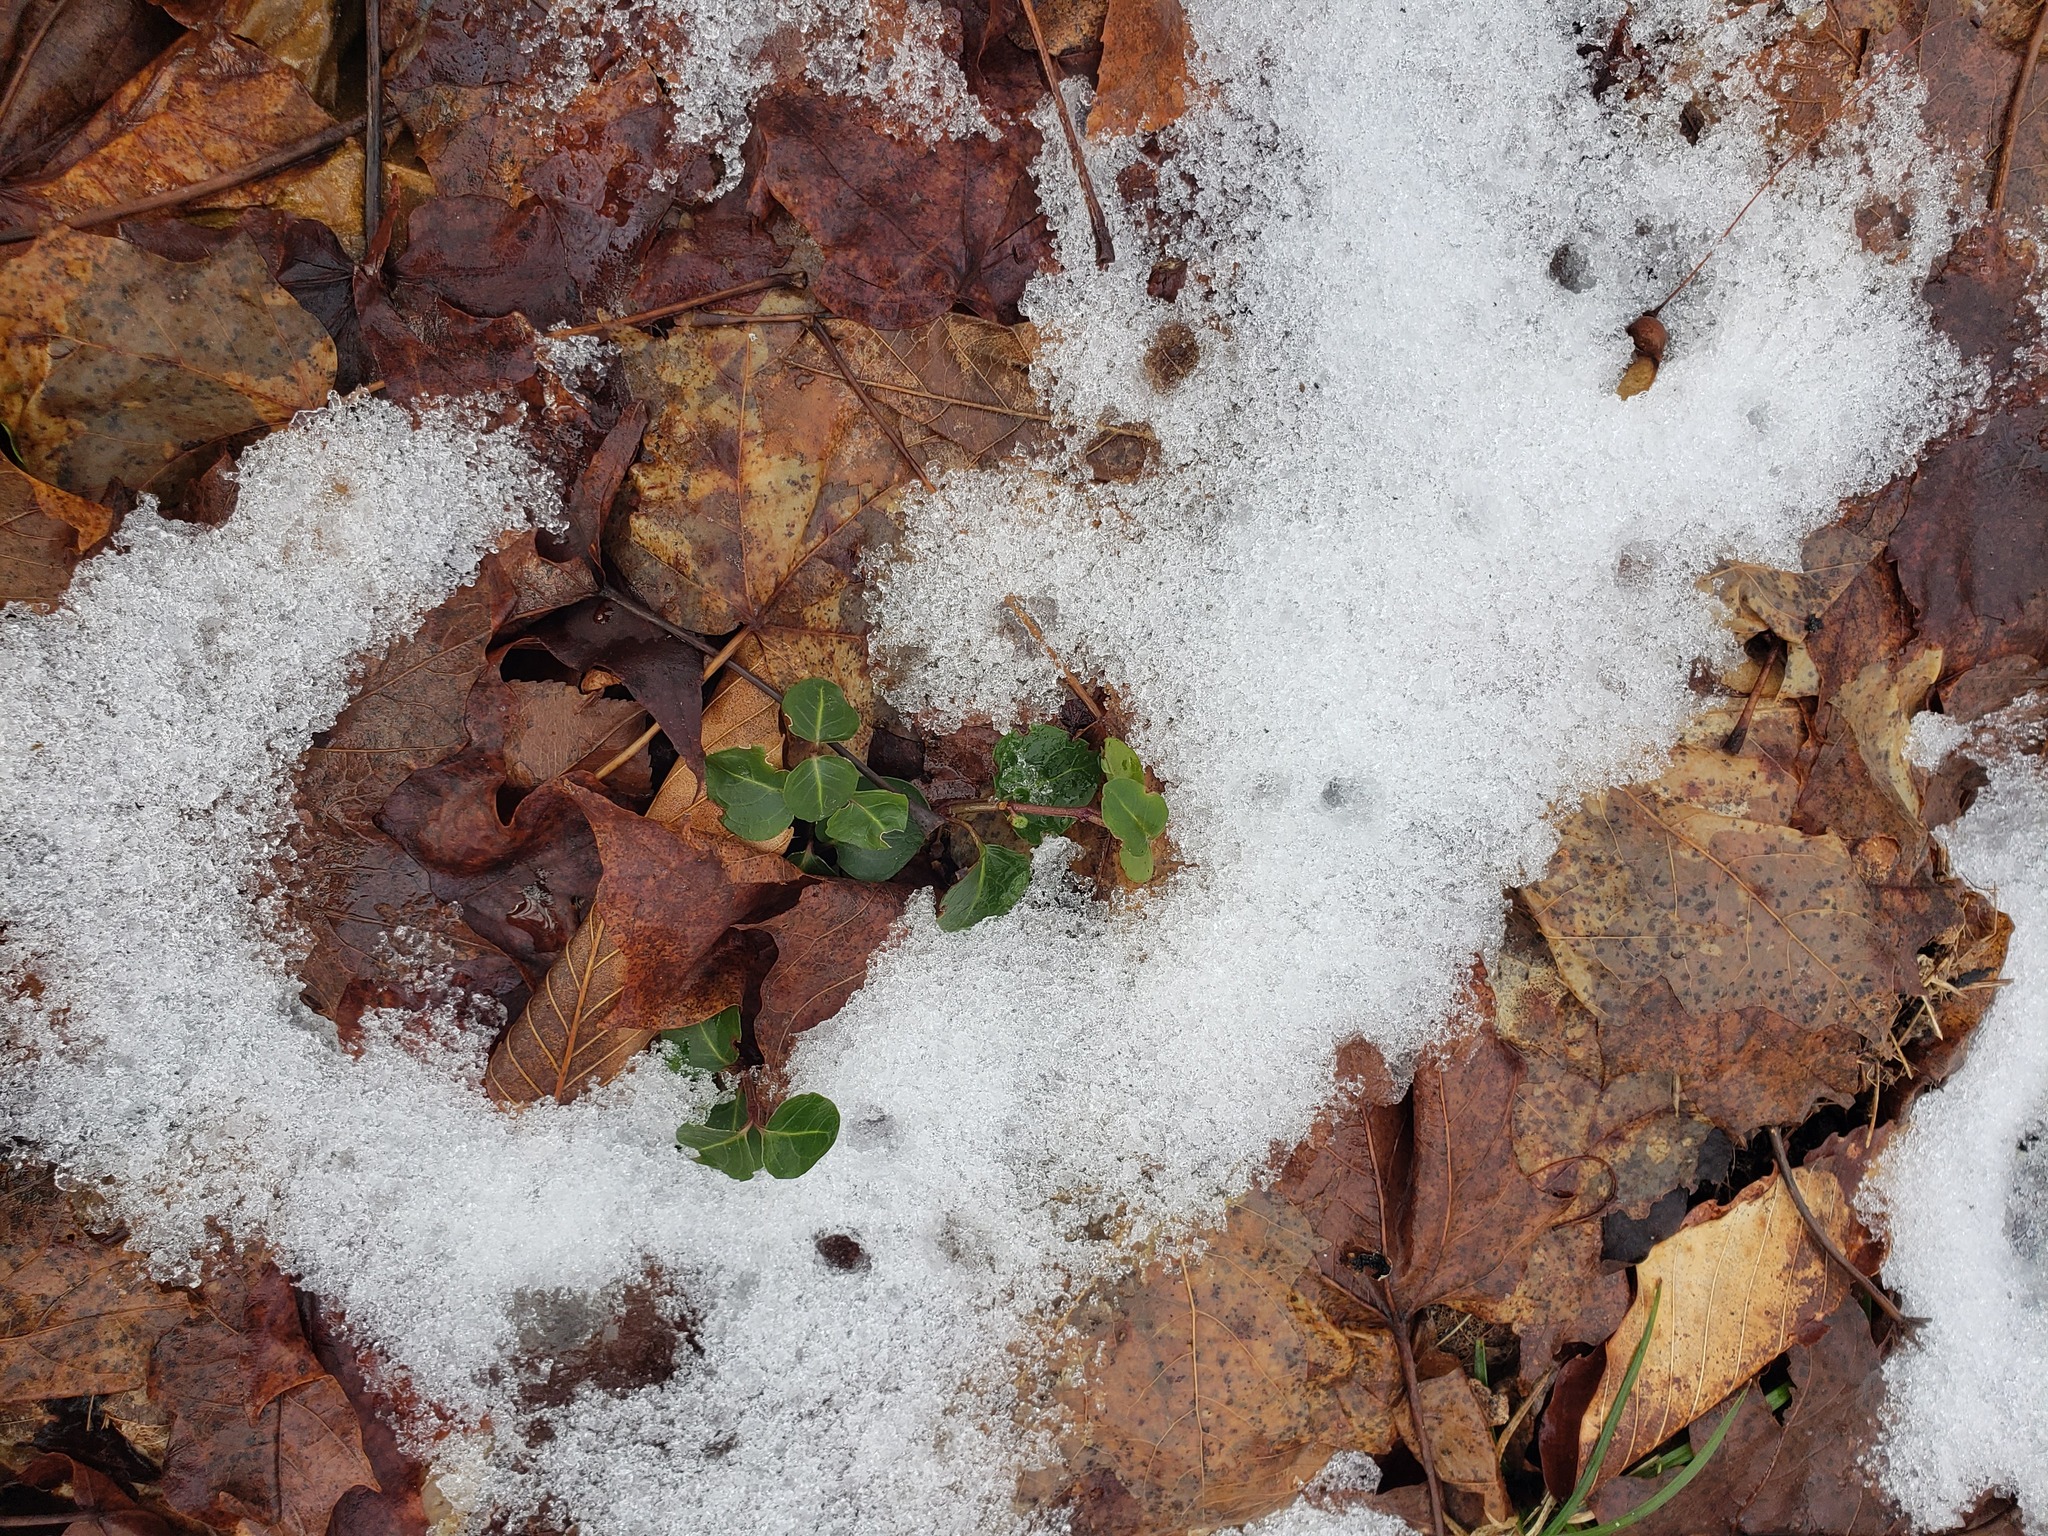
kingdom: Plantae
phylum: Tracheophyta
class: Magnoliopsida
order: Gentianales
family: Rubiaceae
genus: Mitchella
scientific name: Mitchella repens
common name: Partridge-berry
